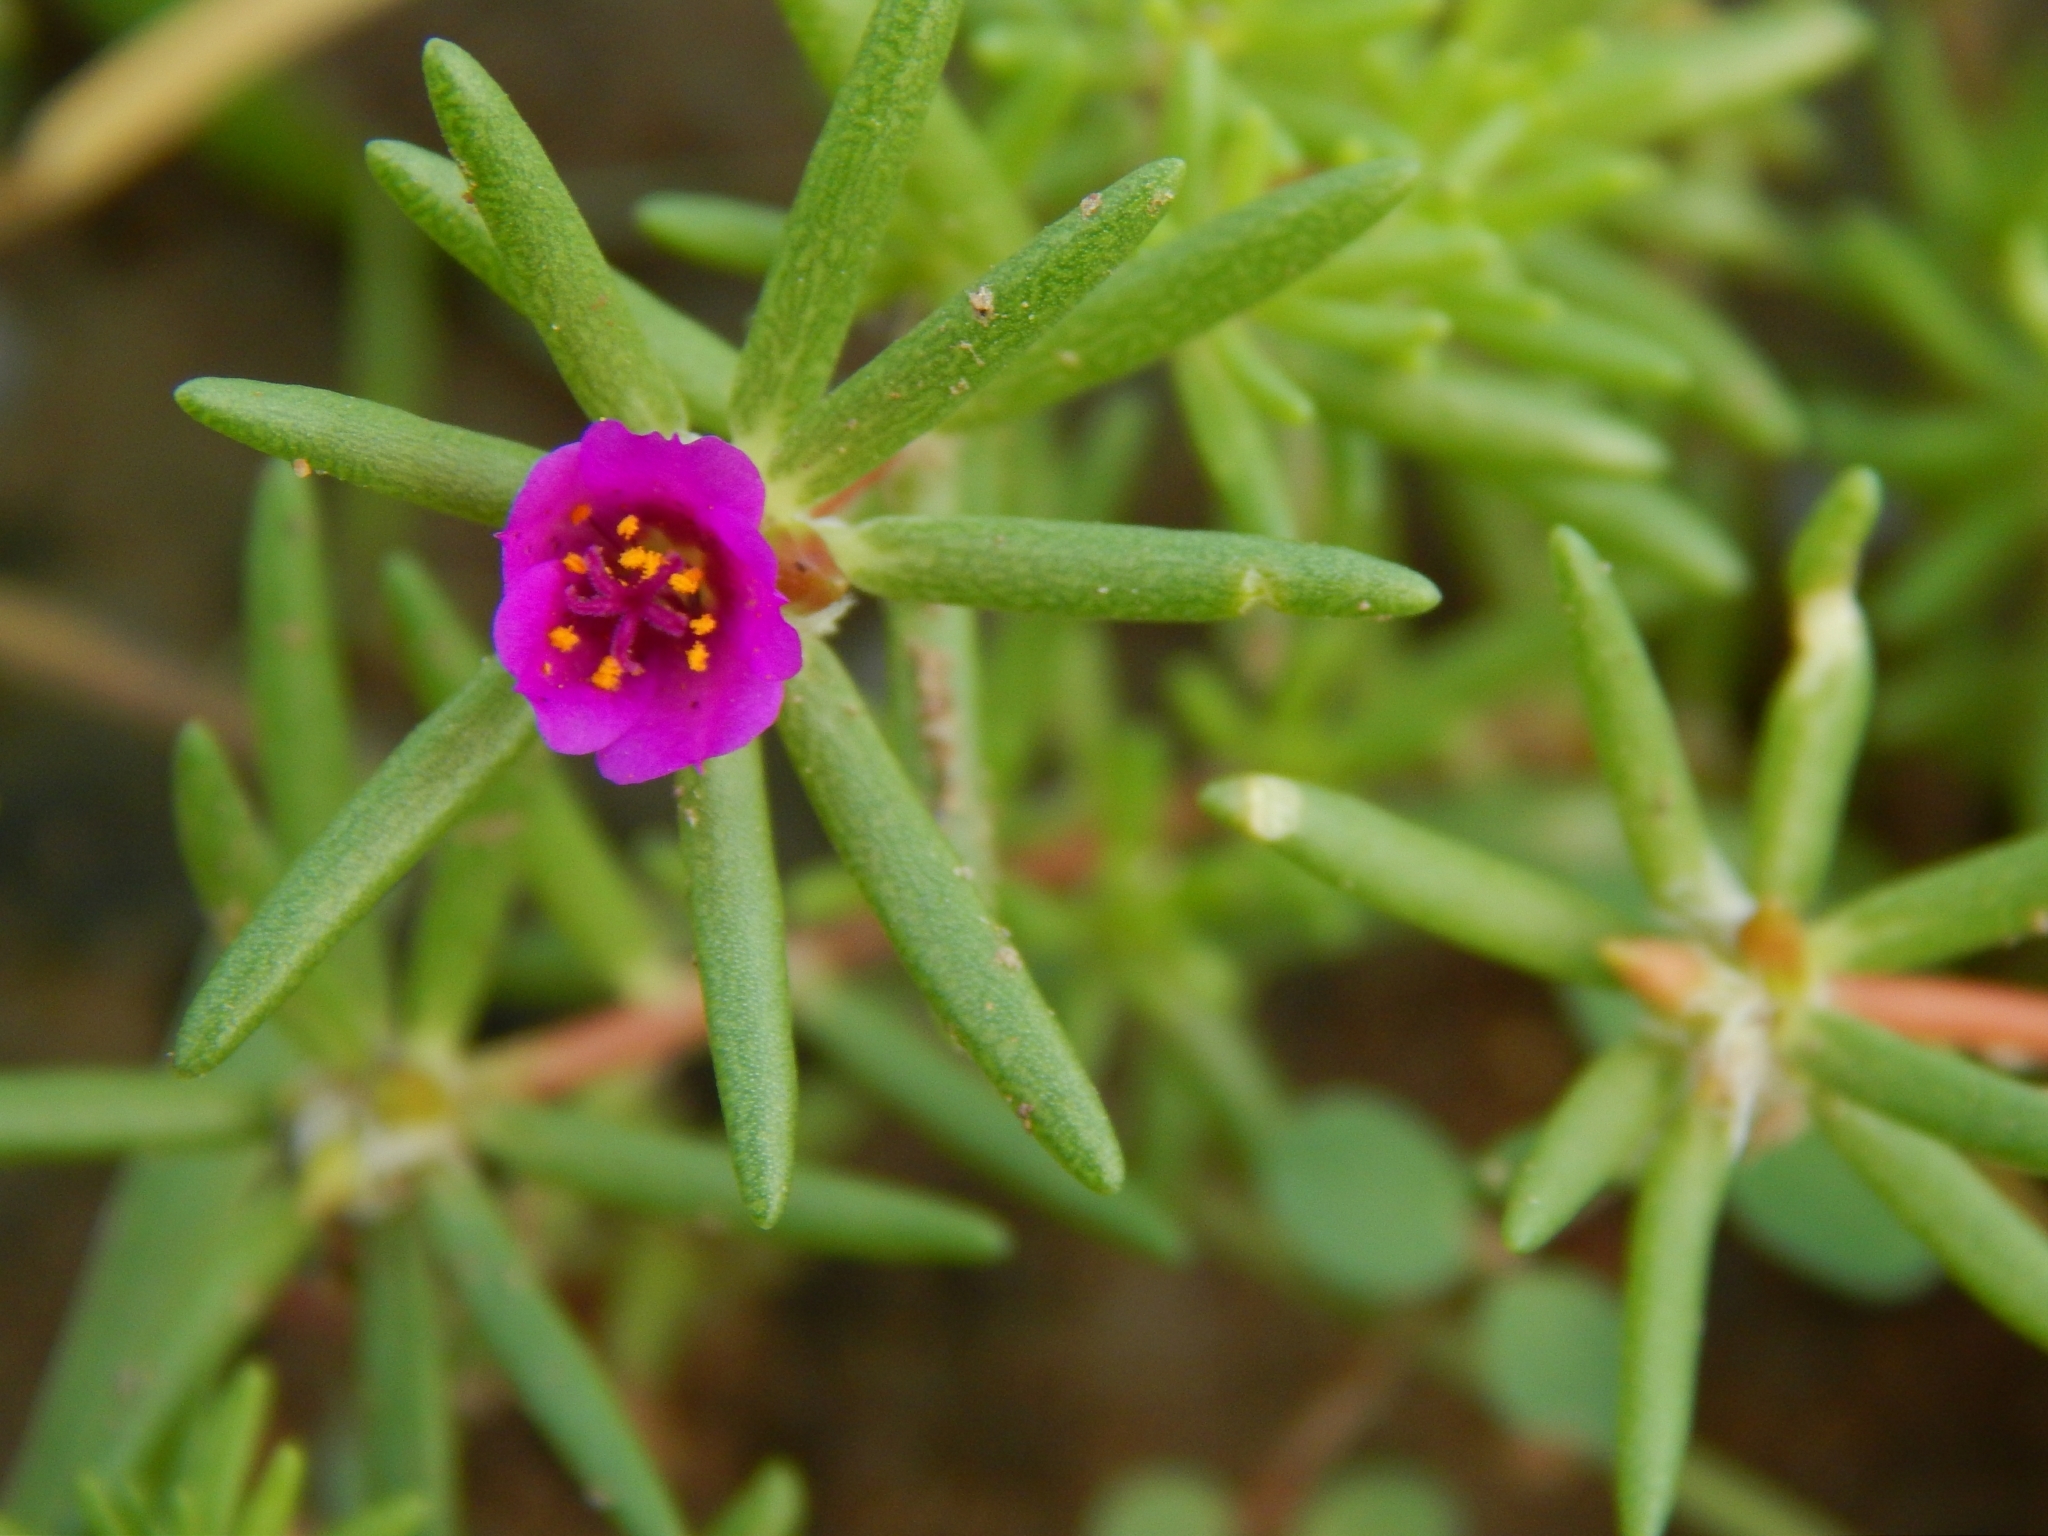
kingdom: Plantae
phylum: Tracheophyta
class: Magnoliopsida
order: Caryophyllales
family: Portulacaceae
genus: Portulaca
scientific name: Portulaca pilosa
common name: Kiss me quick
